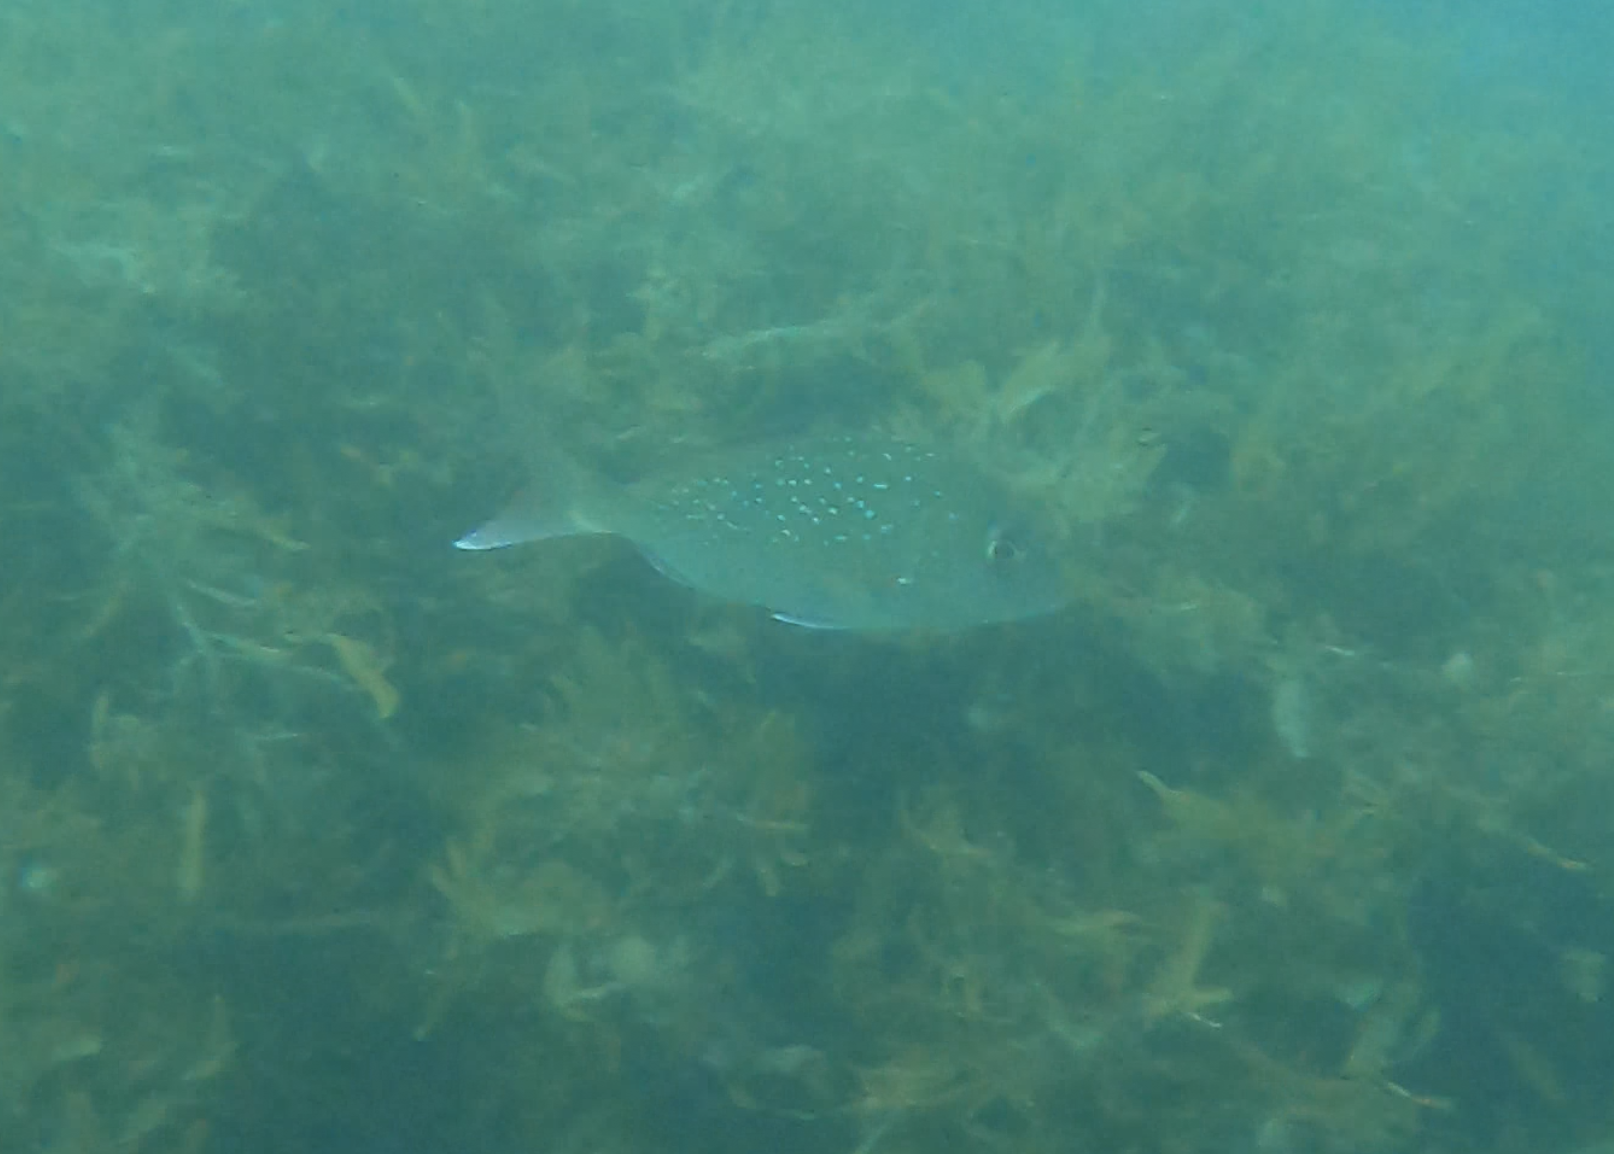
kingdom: Animalia
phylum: Chordata
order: Perciformes
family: Sparidae
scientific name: Sparidae
